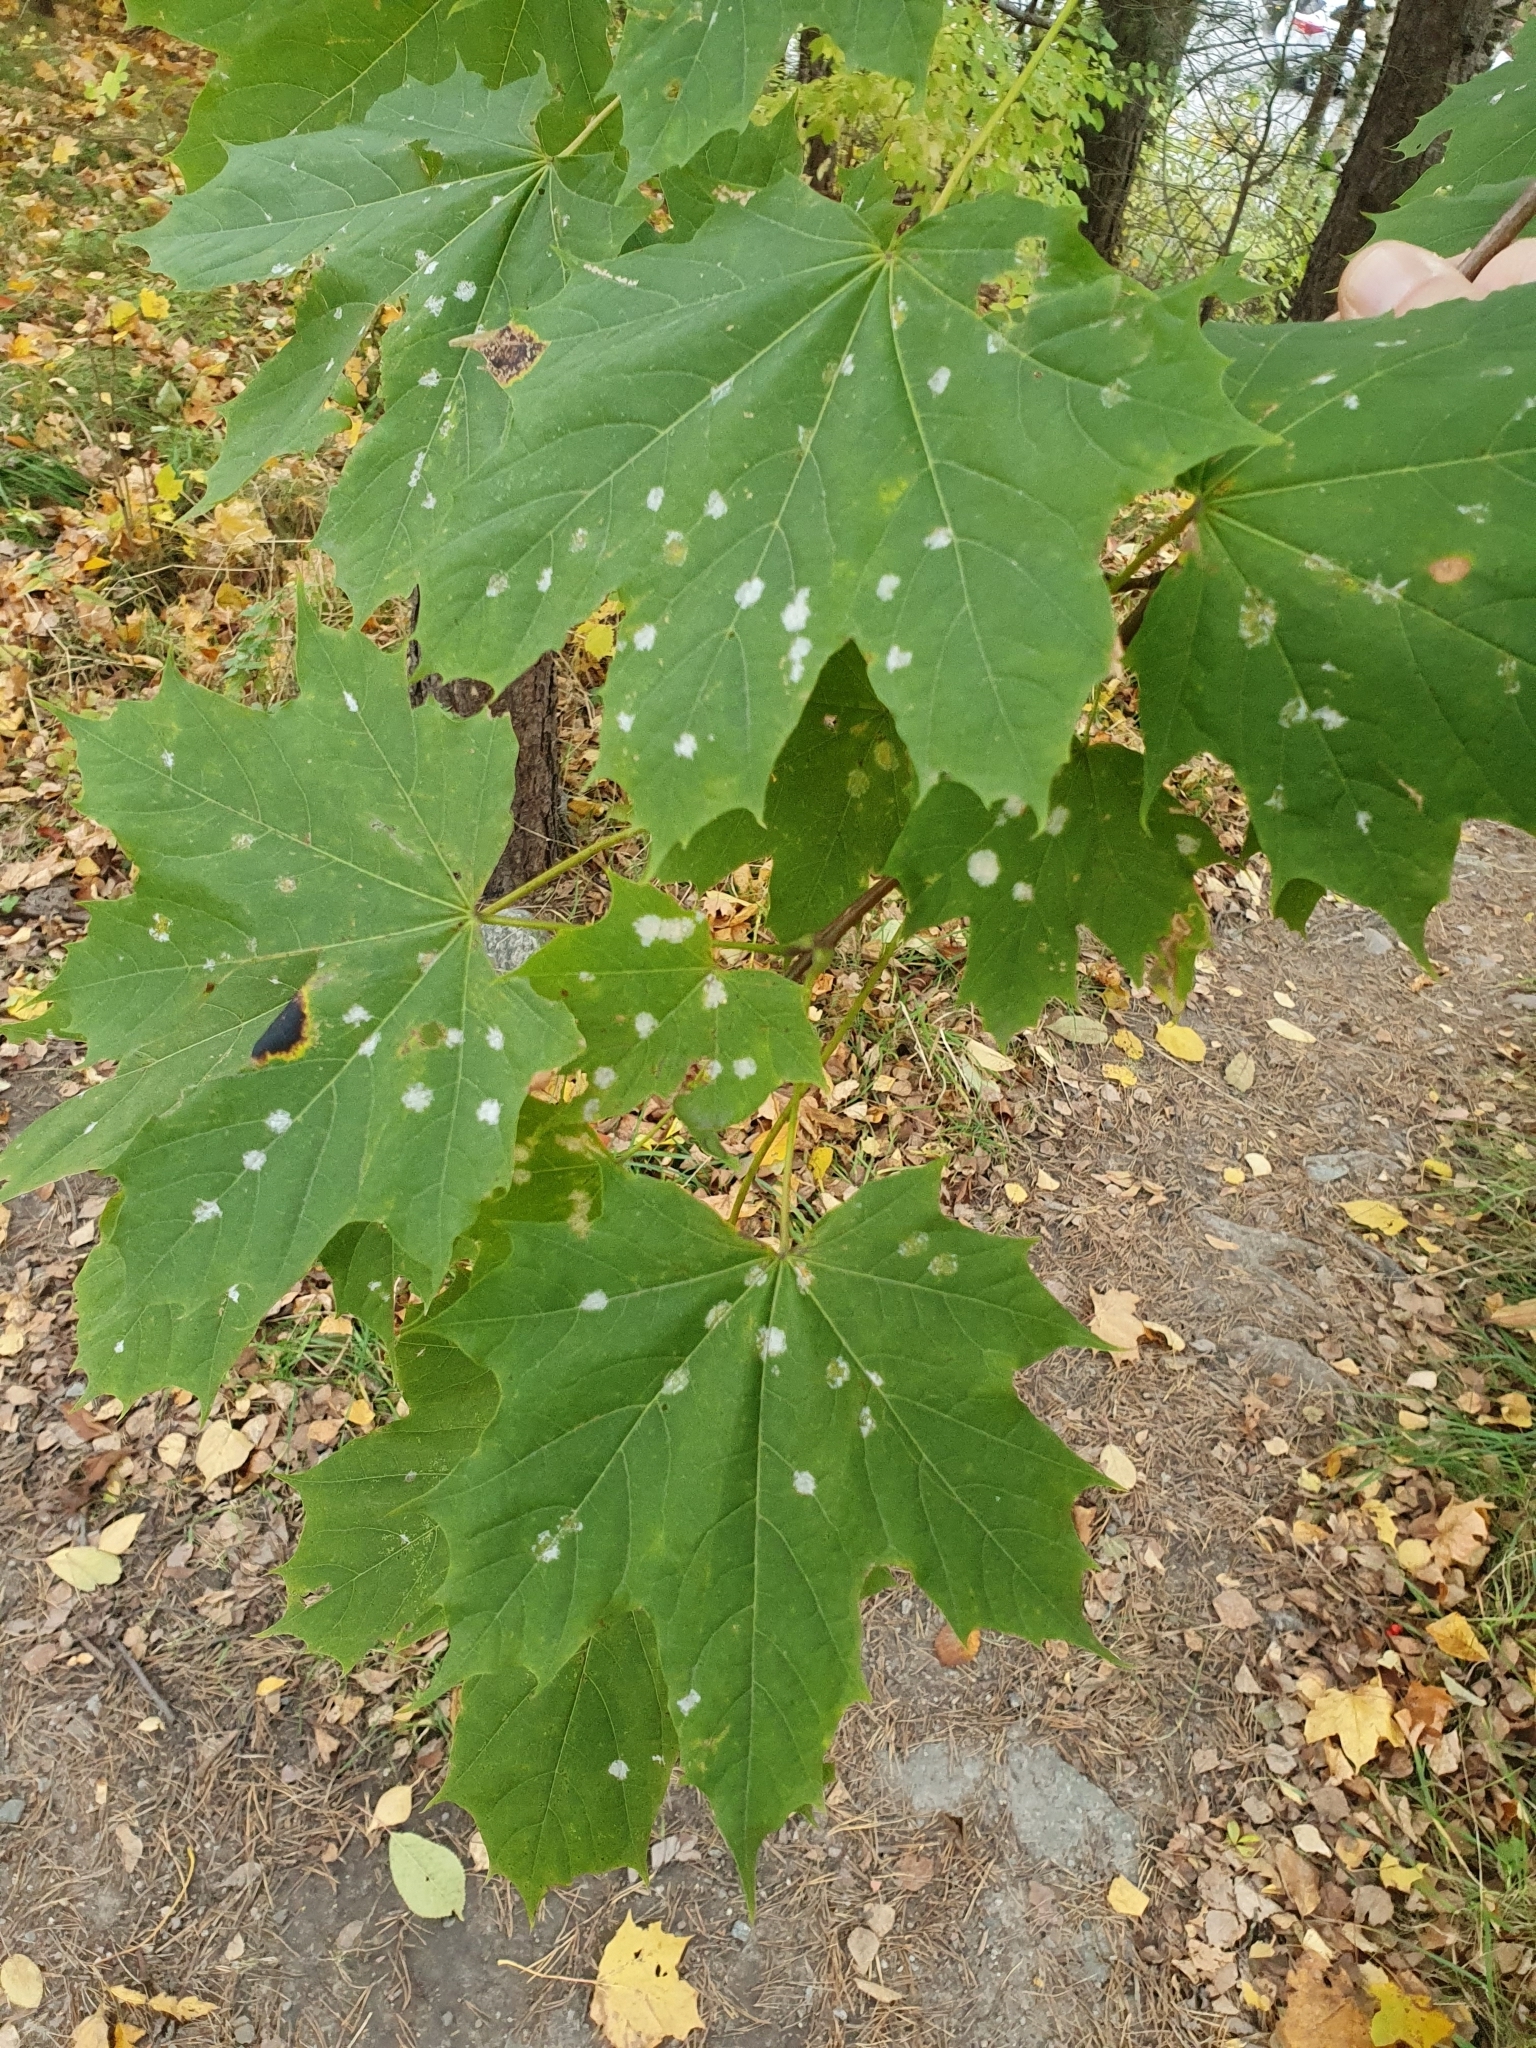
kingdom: Plantae
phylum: Tracheophyta
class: Magnoliopsida
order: Sapindales
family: Sapindaceae
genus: Acer
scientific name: Acer platanoides
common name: Norway maple
